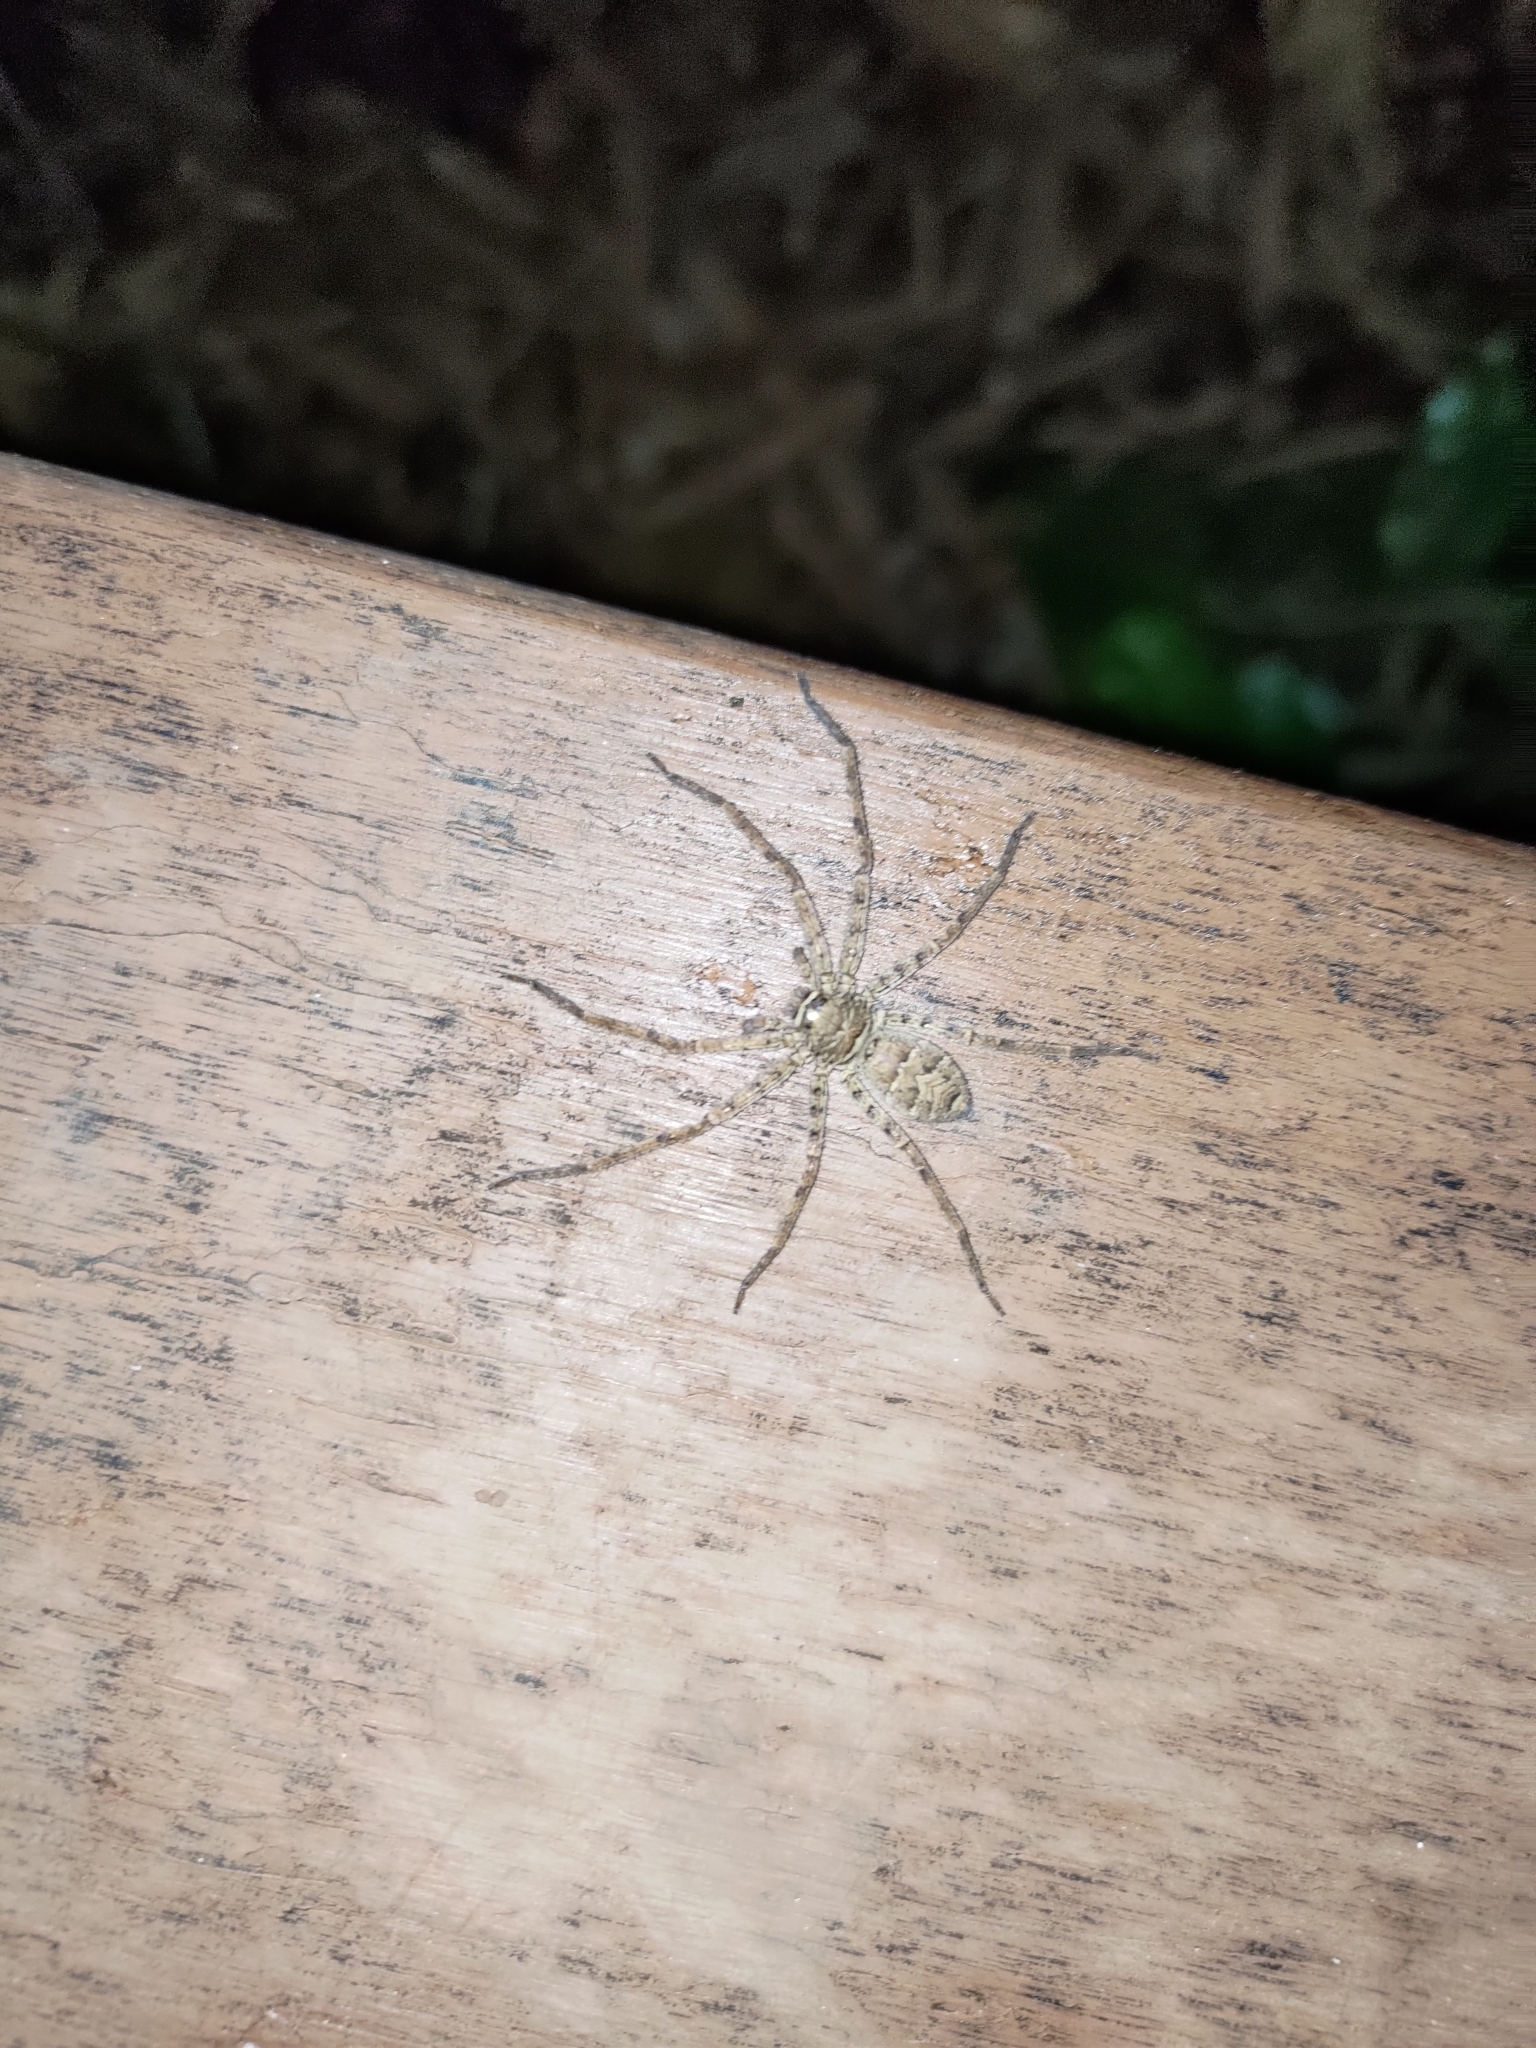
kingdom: Animalia
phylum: Arthropoda
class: Arachnida
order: Araneae
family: Sparassidae
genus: Heteropoda
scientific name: Heteropoda venatoria
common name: Huntsman spider
